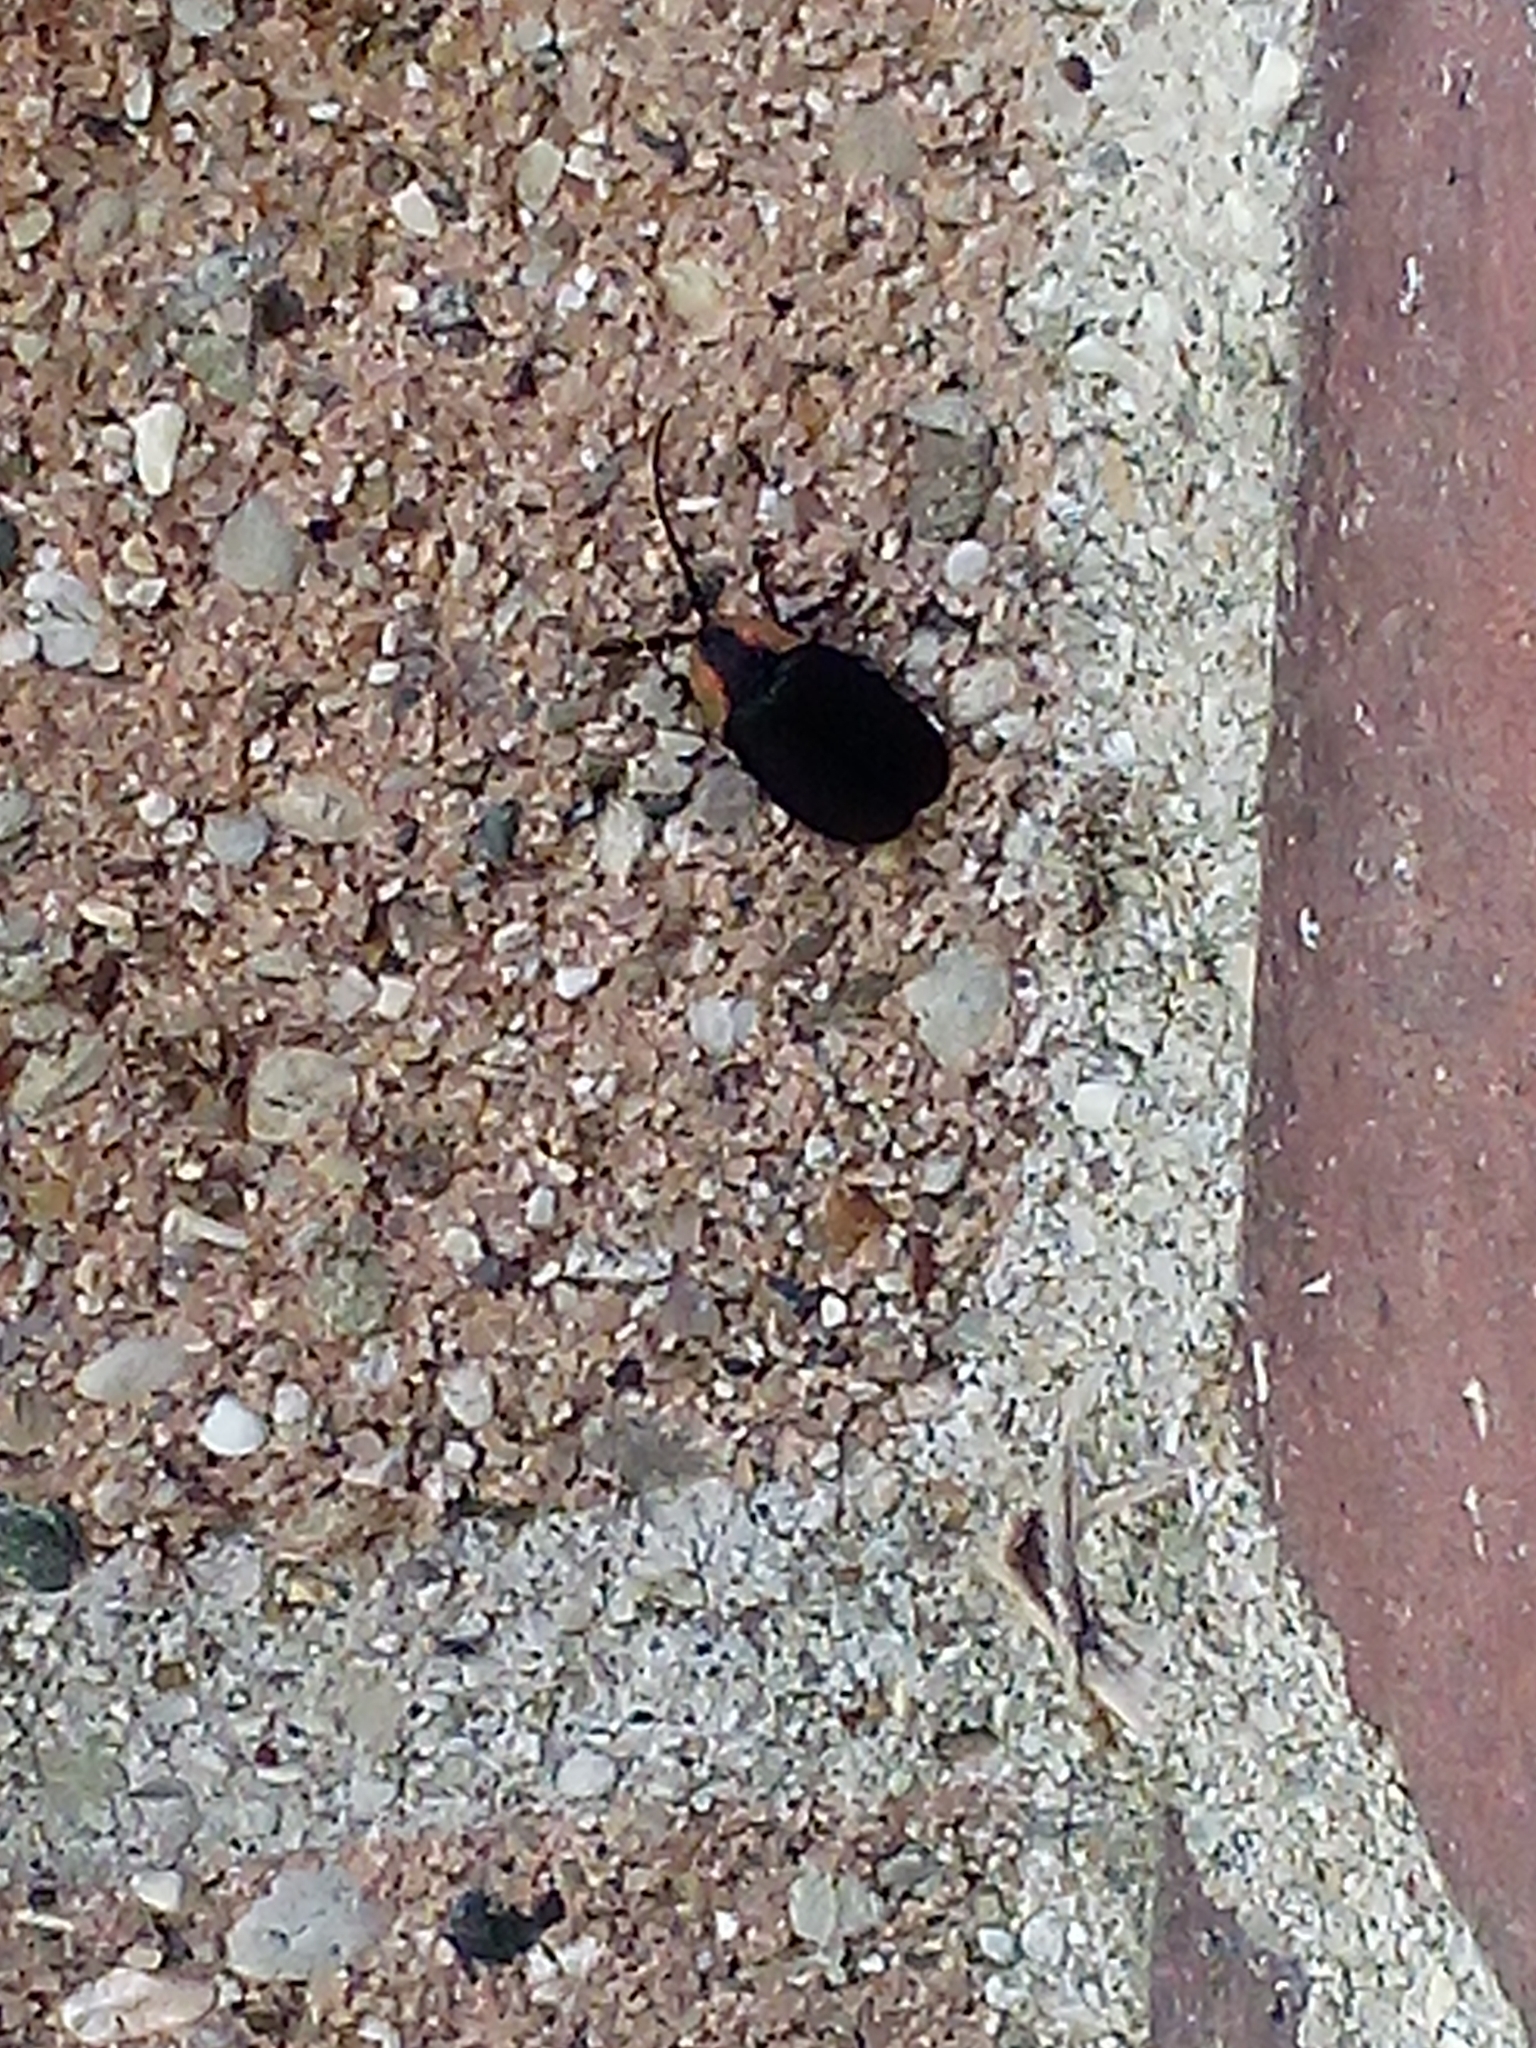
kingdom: Animalia
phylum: Arthropoda
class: Insecta
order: Coleoptera
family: Lampyridae
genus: Lucidota
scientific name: Lucidota atra
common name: Black firefly
